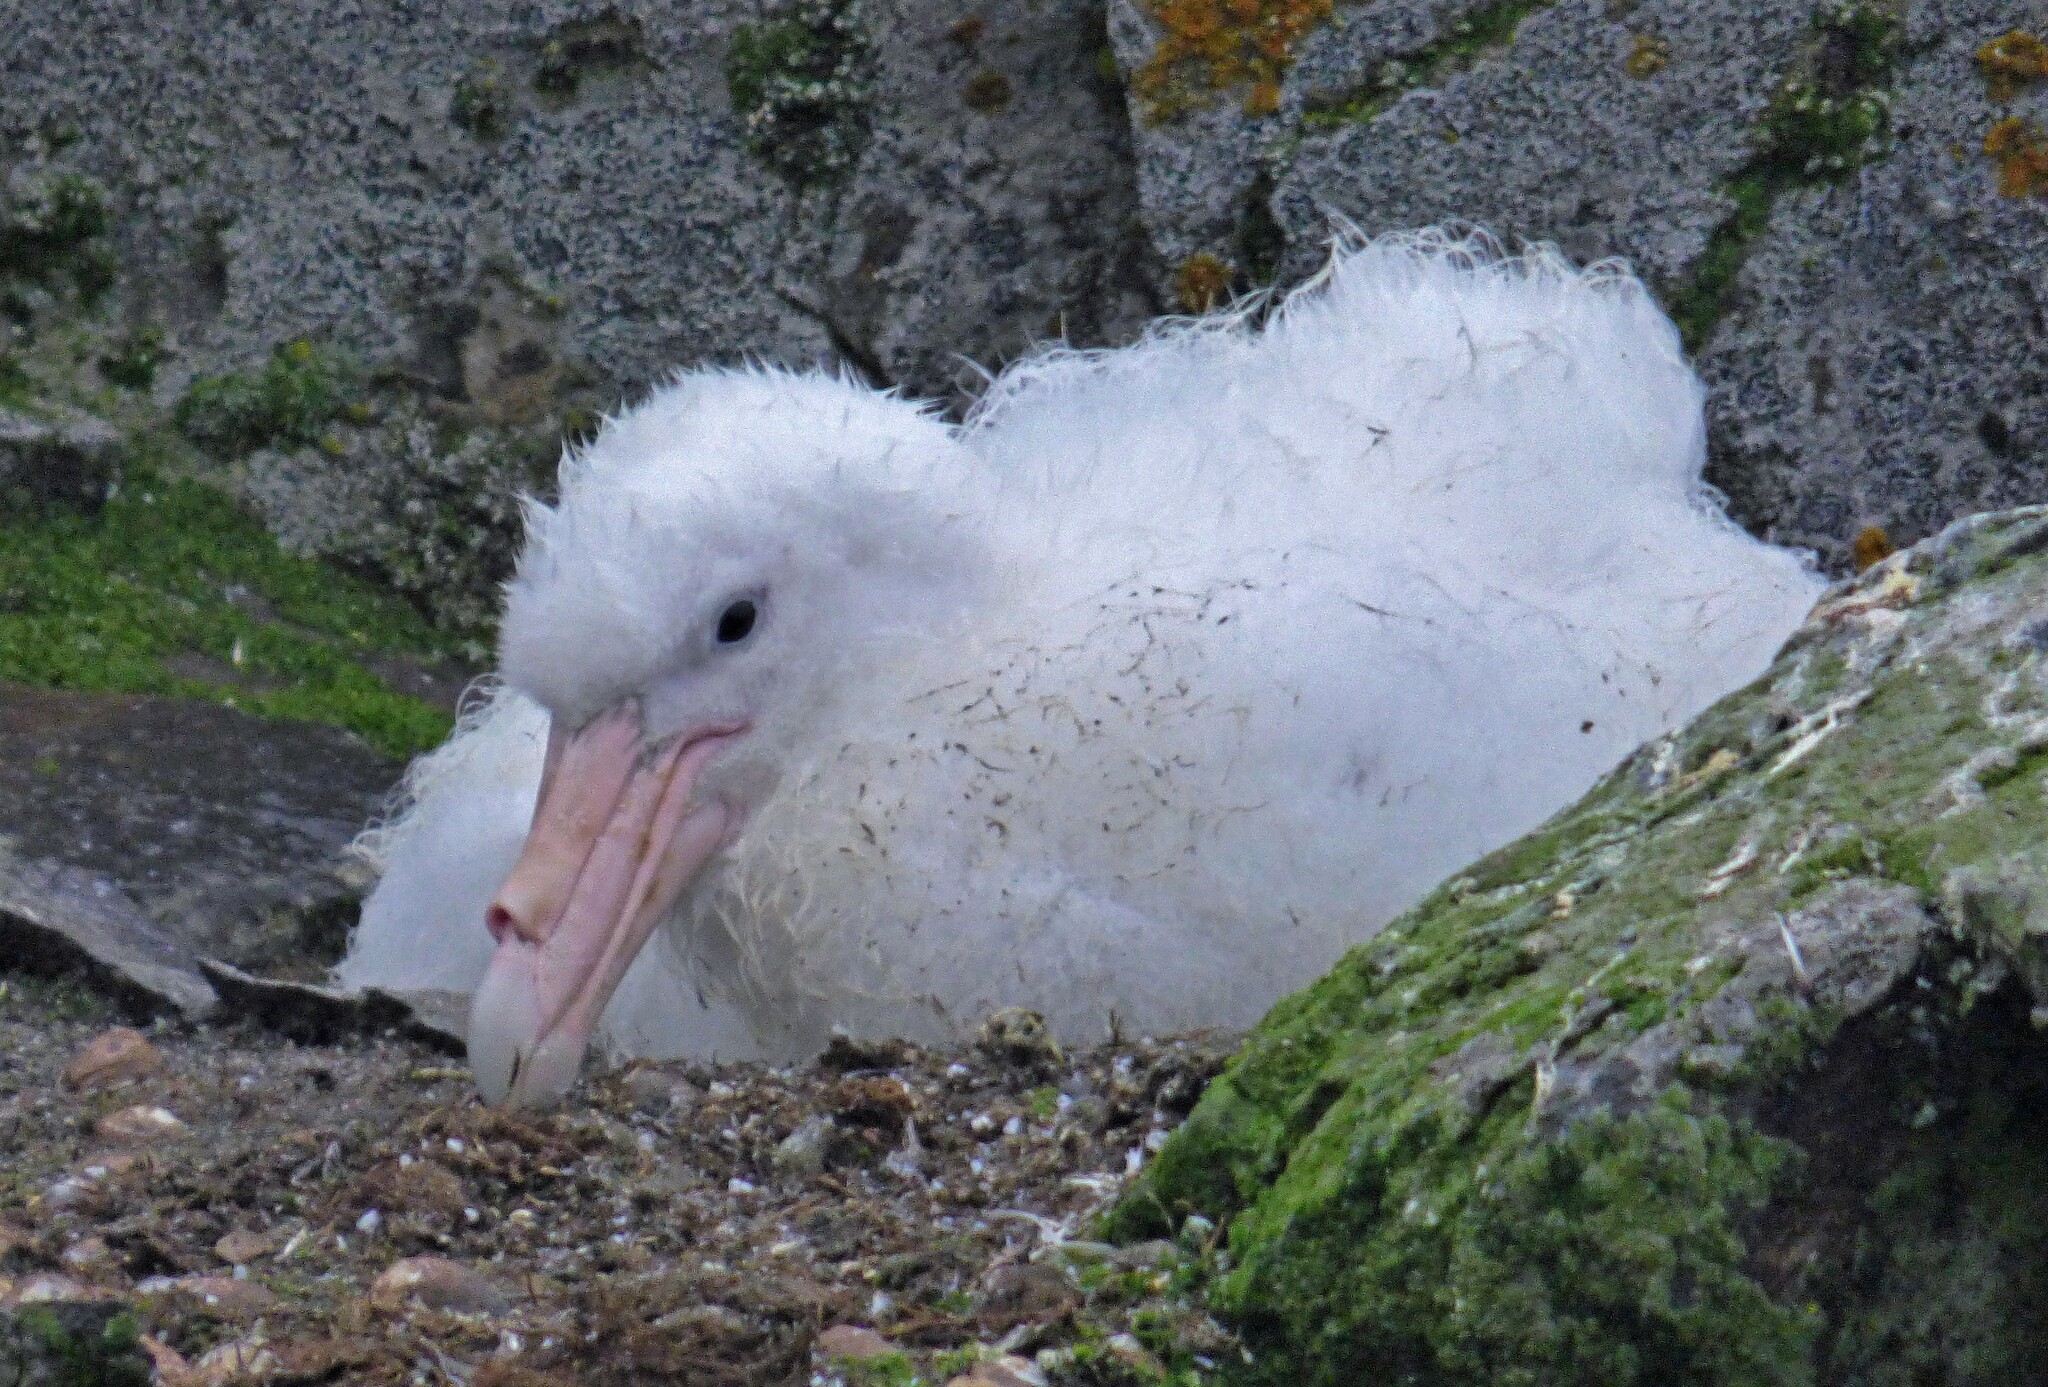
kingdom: Animalia
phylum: Chordata
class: Aves
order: Procellariiformes
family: Procellariidae
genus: Macronectes
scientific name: Macronectes giganteus
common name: Southern giant petrel
